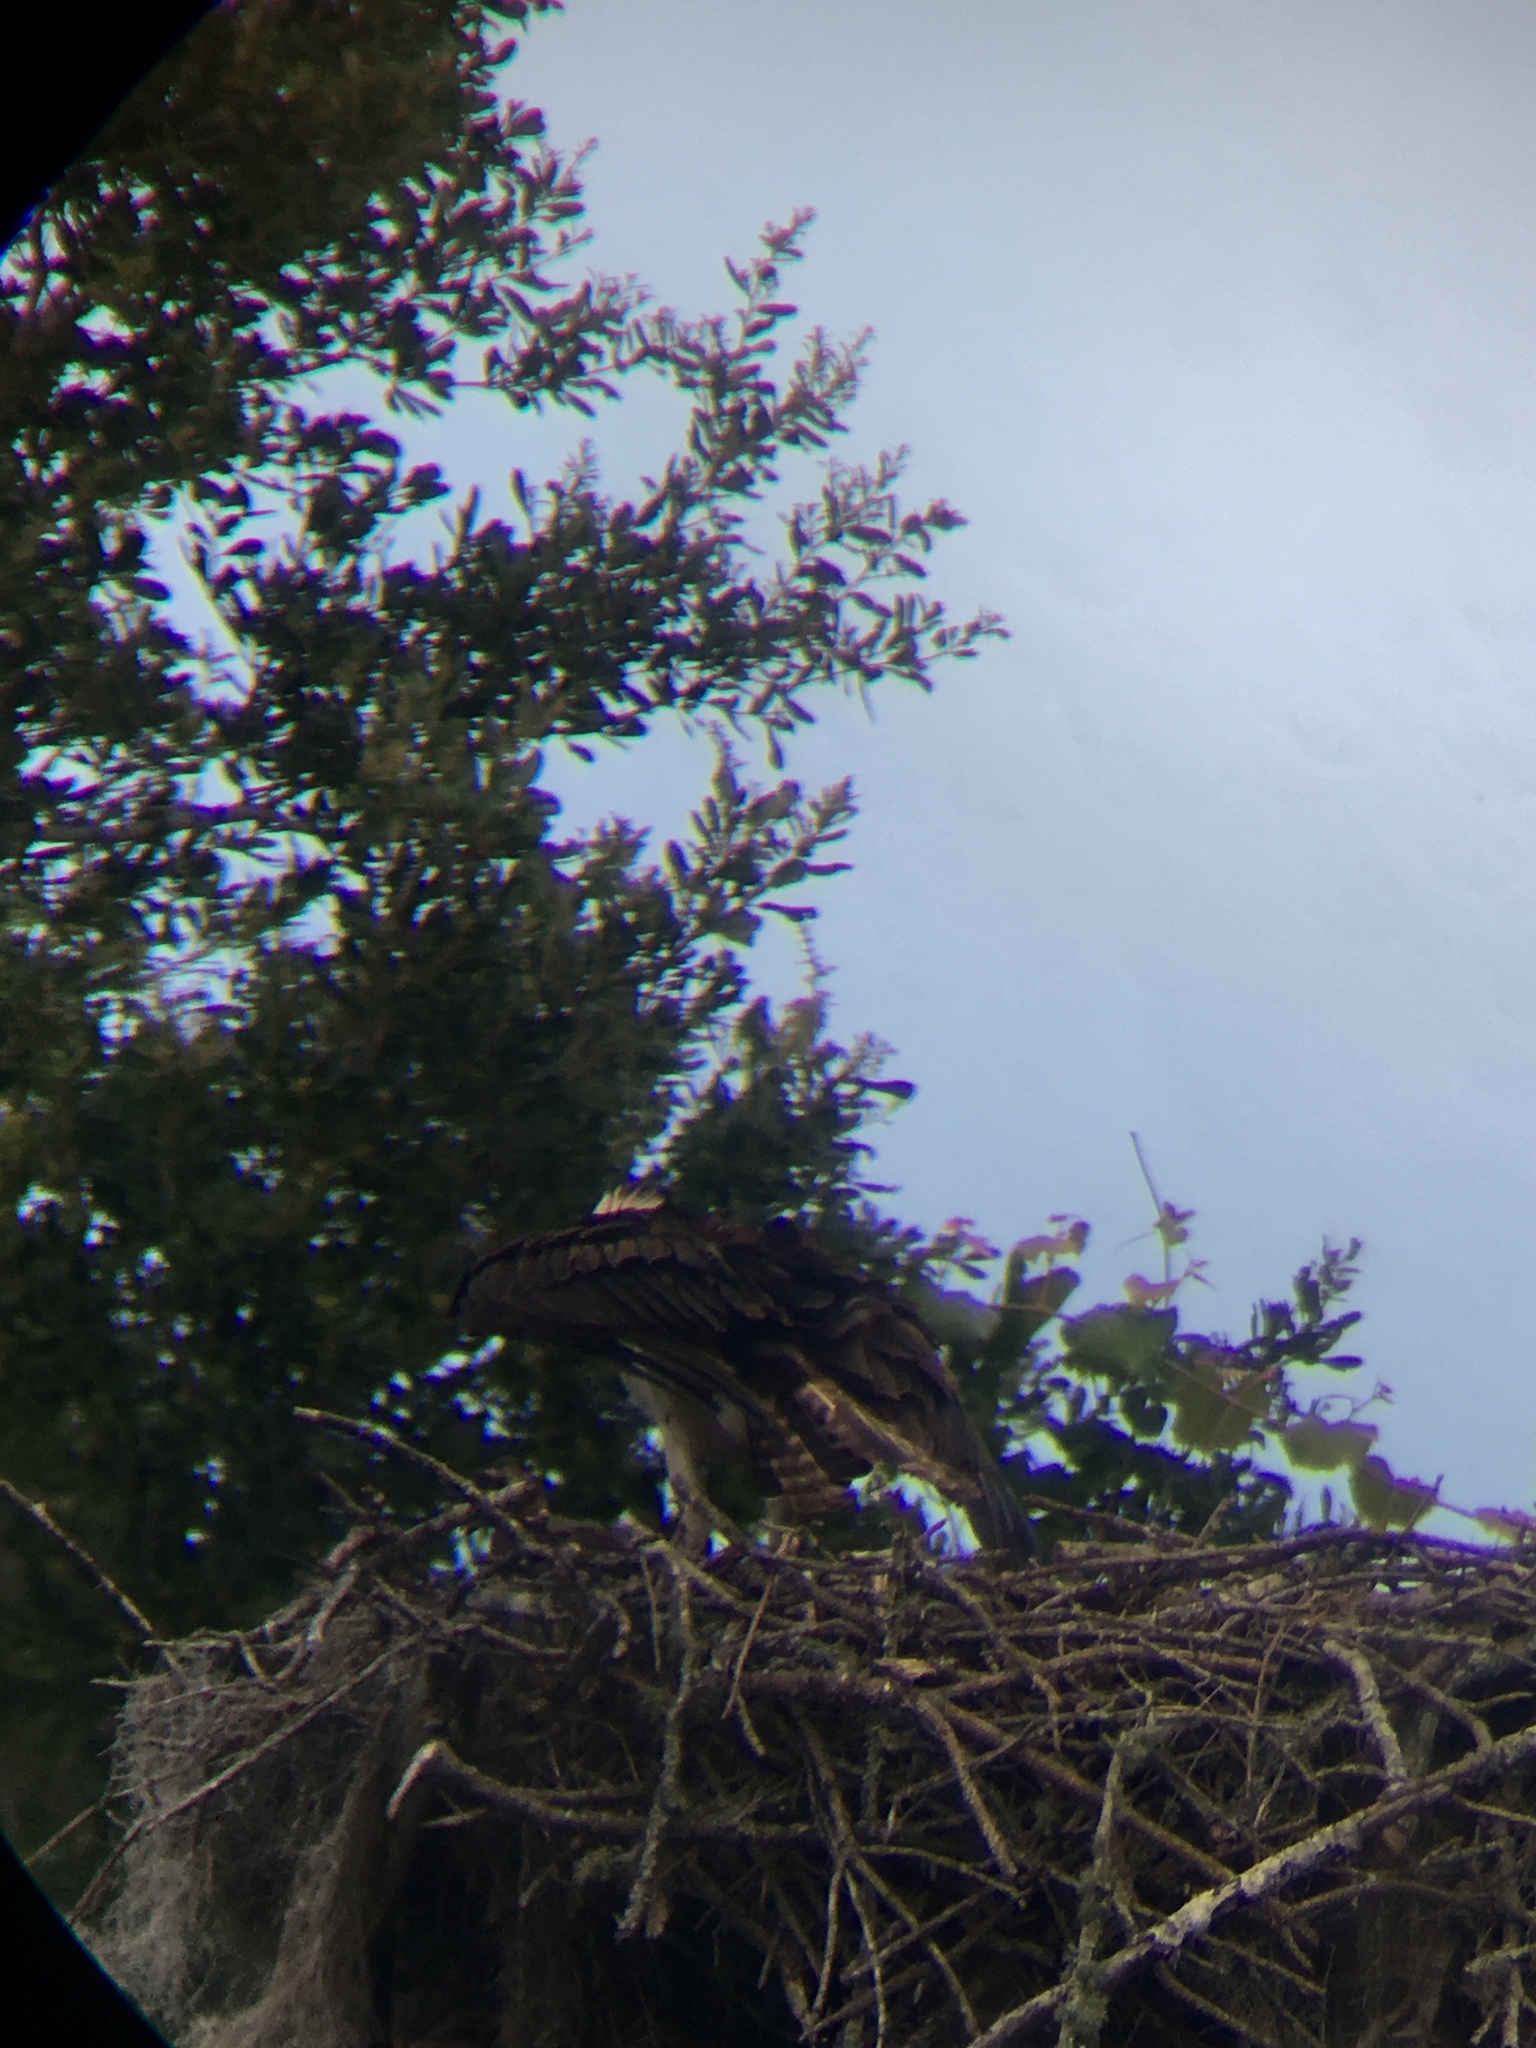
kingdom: Animalia
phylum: Chordata
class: Aves
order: Accipitriformes
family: Pandionidae
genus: Pandion
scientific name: Pandion haliaetus
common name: Osprey
